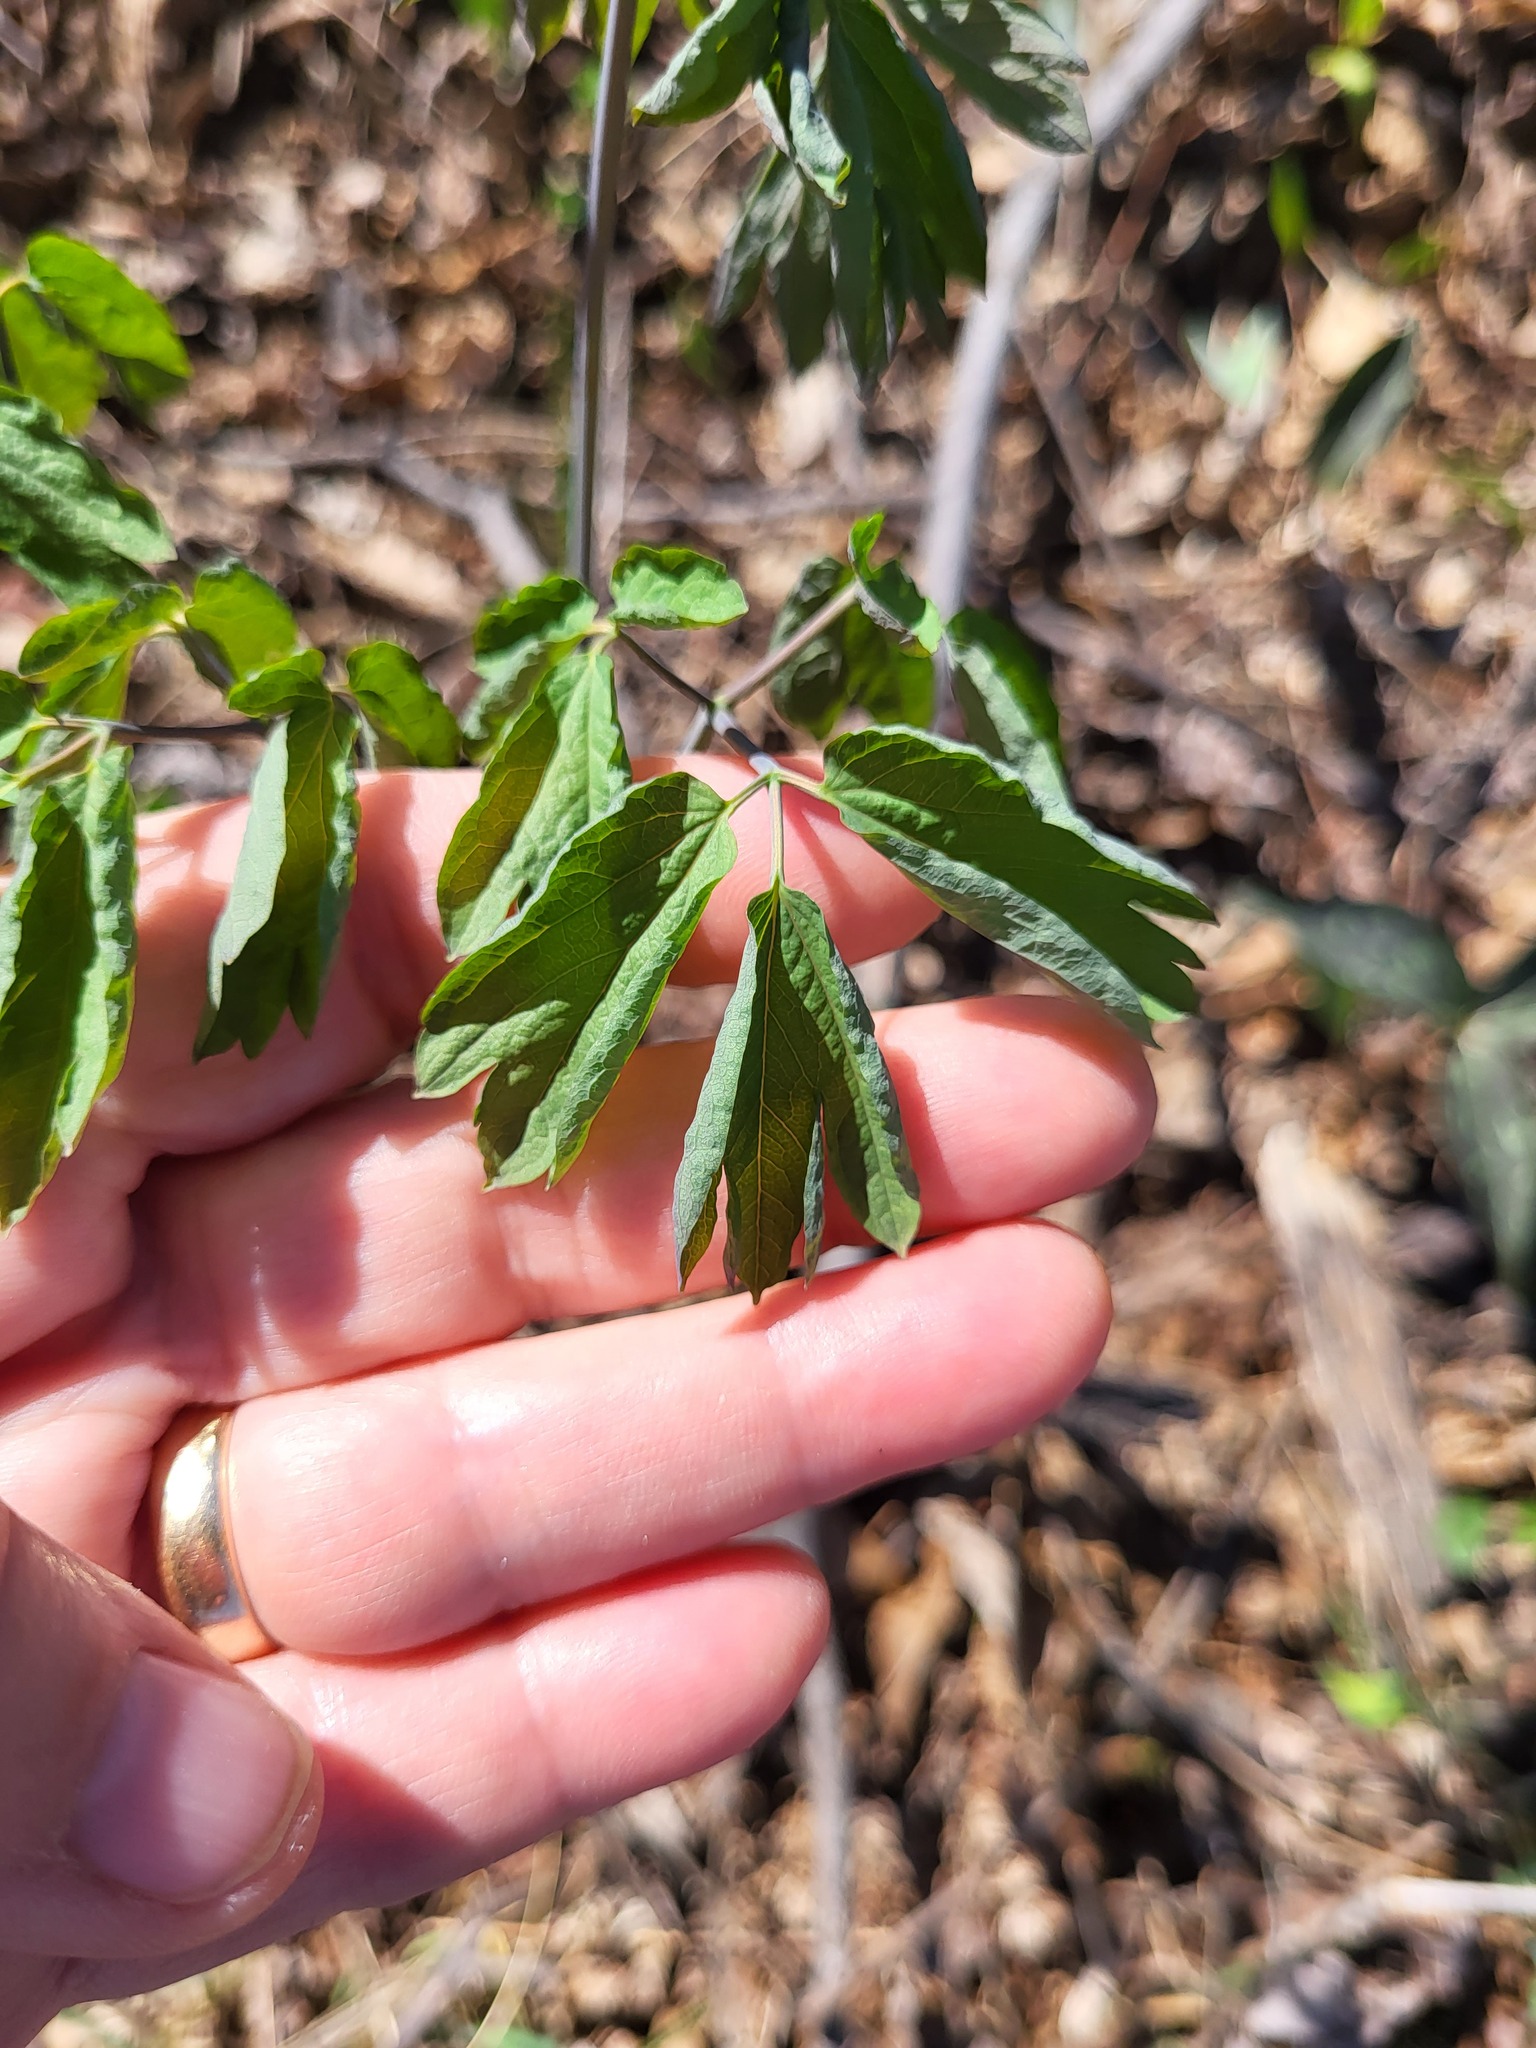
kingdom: Plantae
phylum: Tracheophyta
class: Magnoliopsida
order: Ranunculales
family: Berberidaceae
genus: Caulophyllum
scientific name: Caulophyllum thalictroides
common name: Blue cohosh
